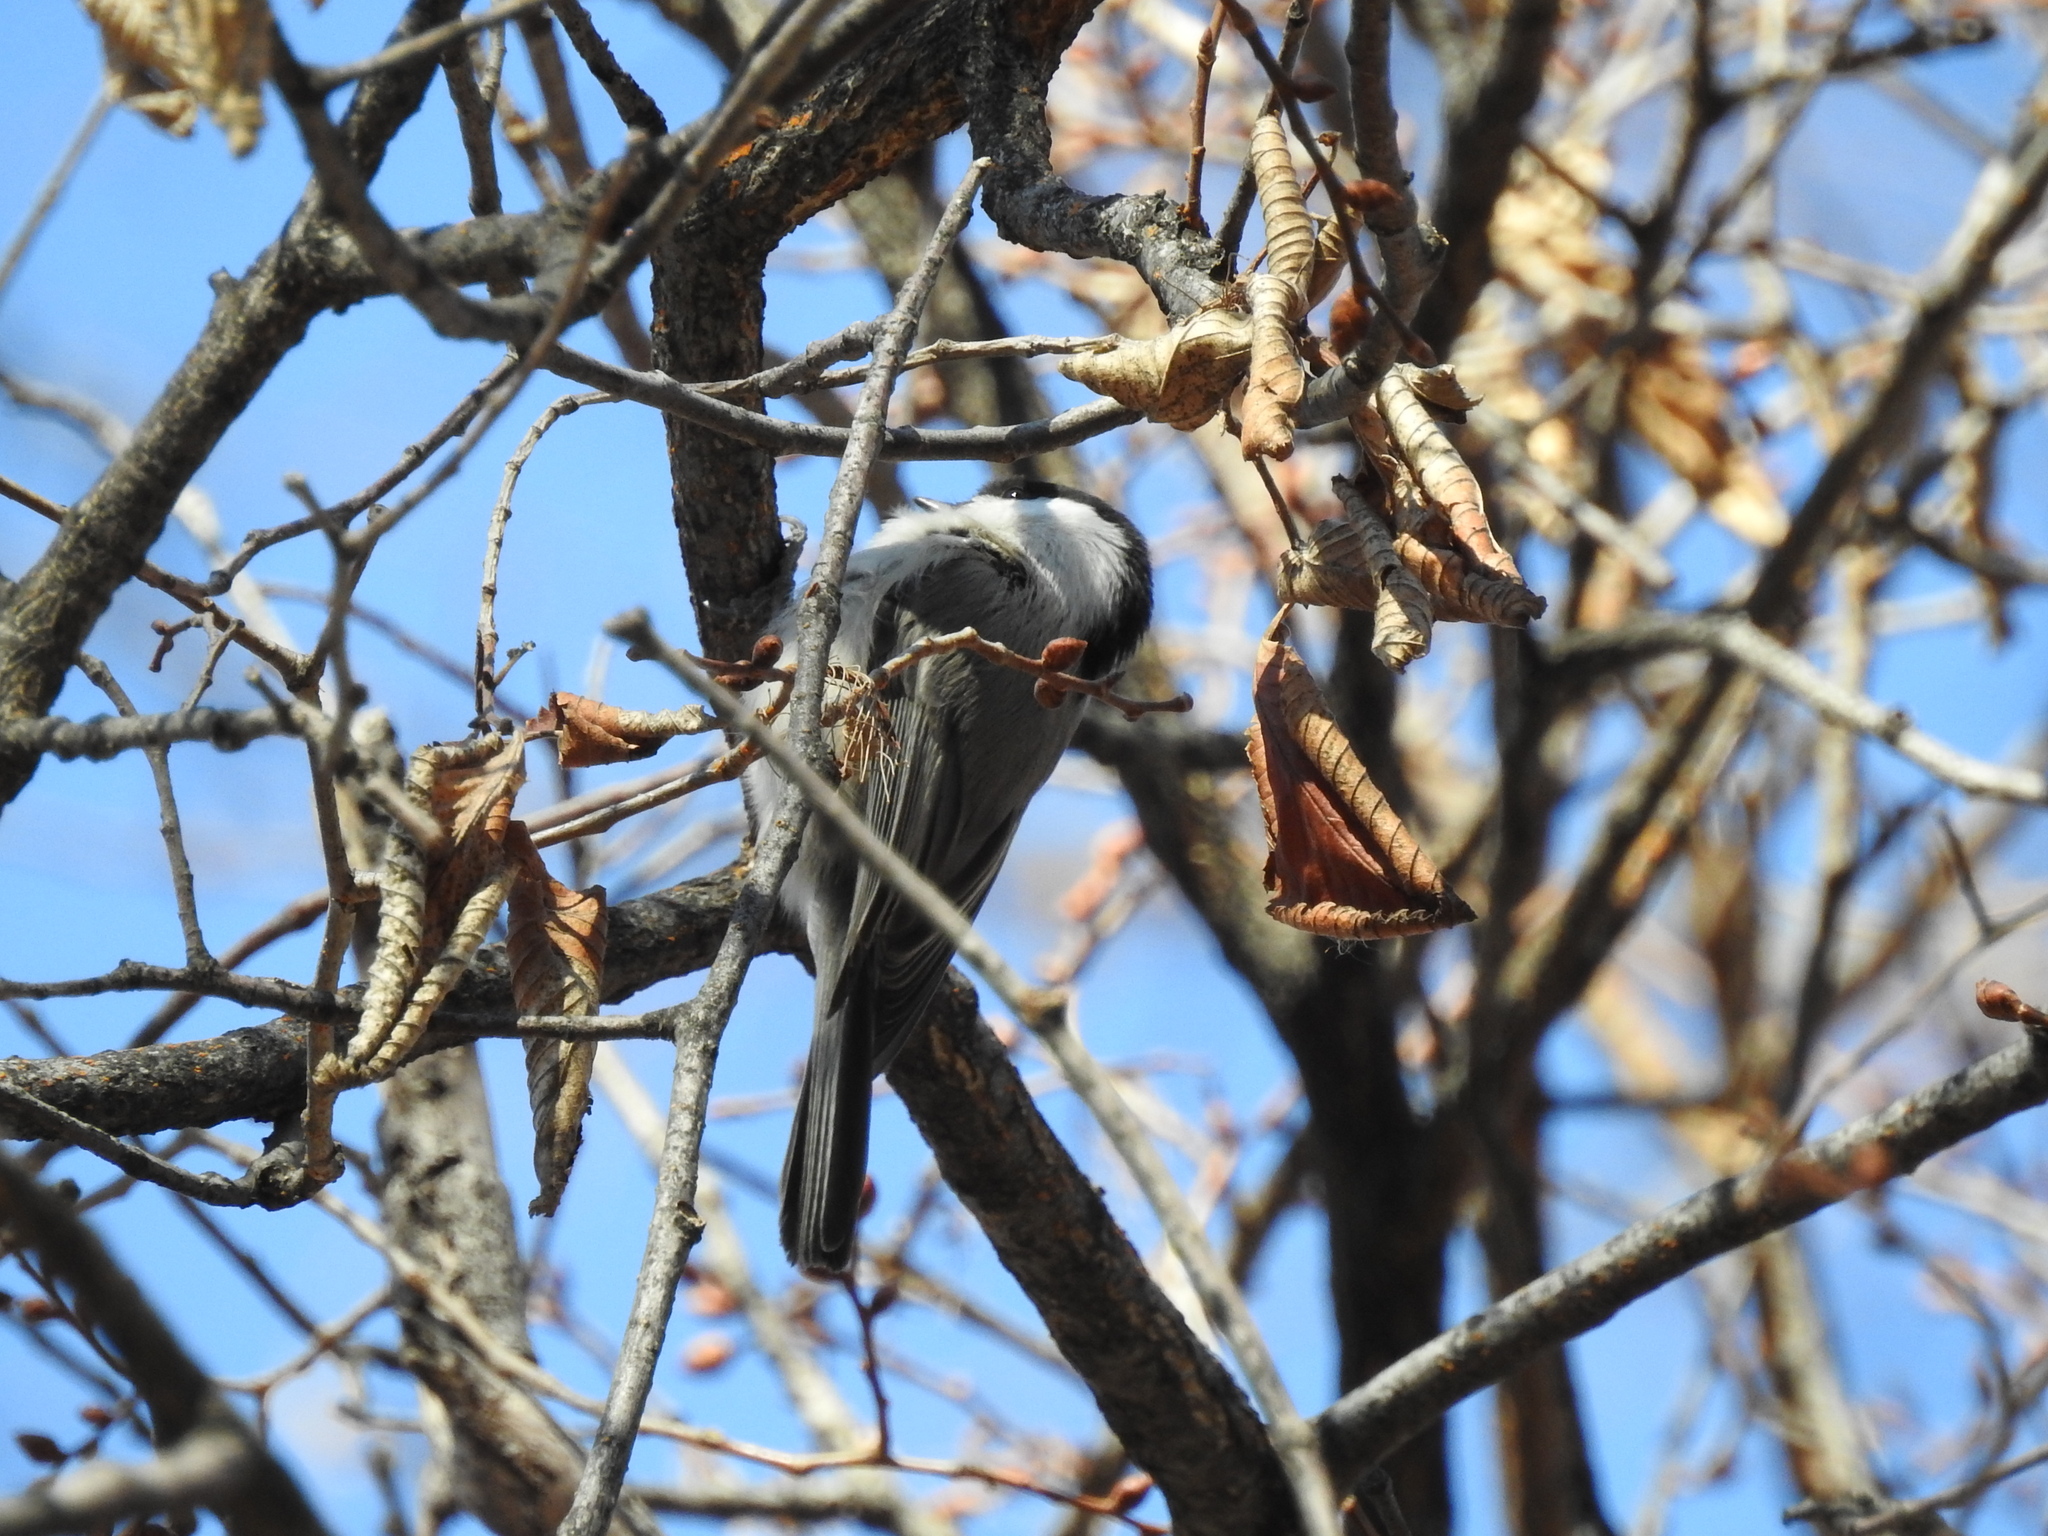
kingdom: Animalia
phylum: Chordata
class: Aves
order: Passeriformes
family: Paridae
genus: Poecile
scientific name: Poecile montanus
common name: Willow tit
